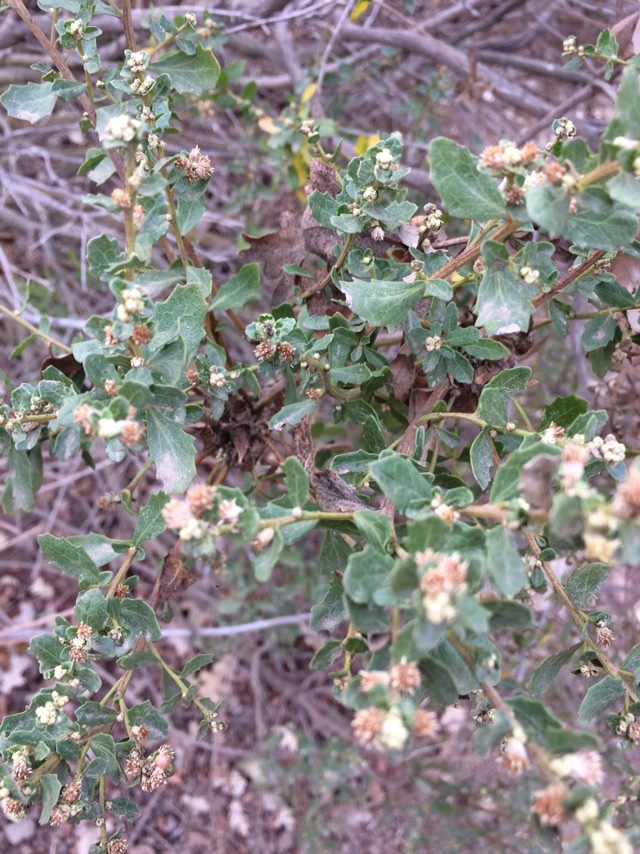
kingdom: Plantae
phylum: Tracheophyta
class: Magnoliopsida
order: Asterales
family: Asteraceae
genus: Baccharis
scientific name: Baccharis pilularis
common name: Coyotebrush
